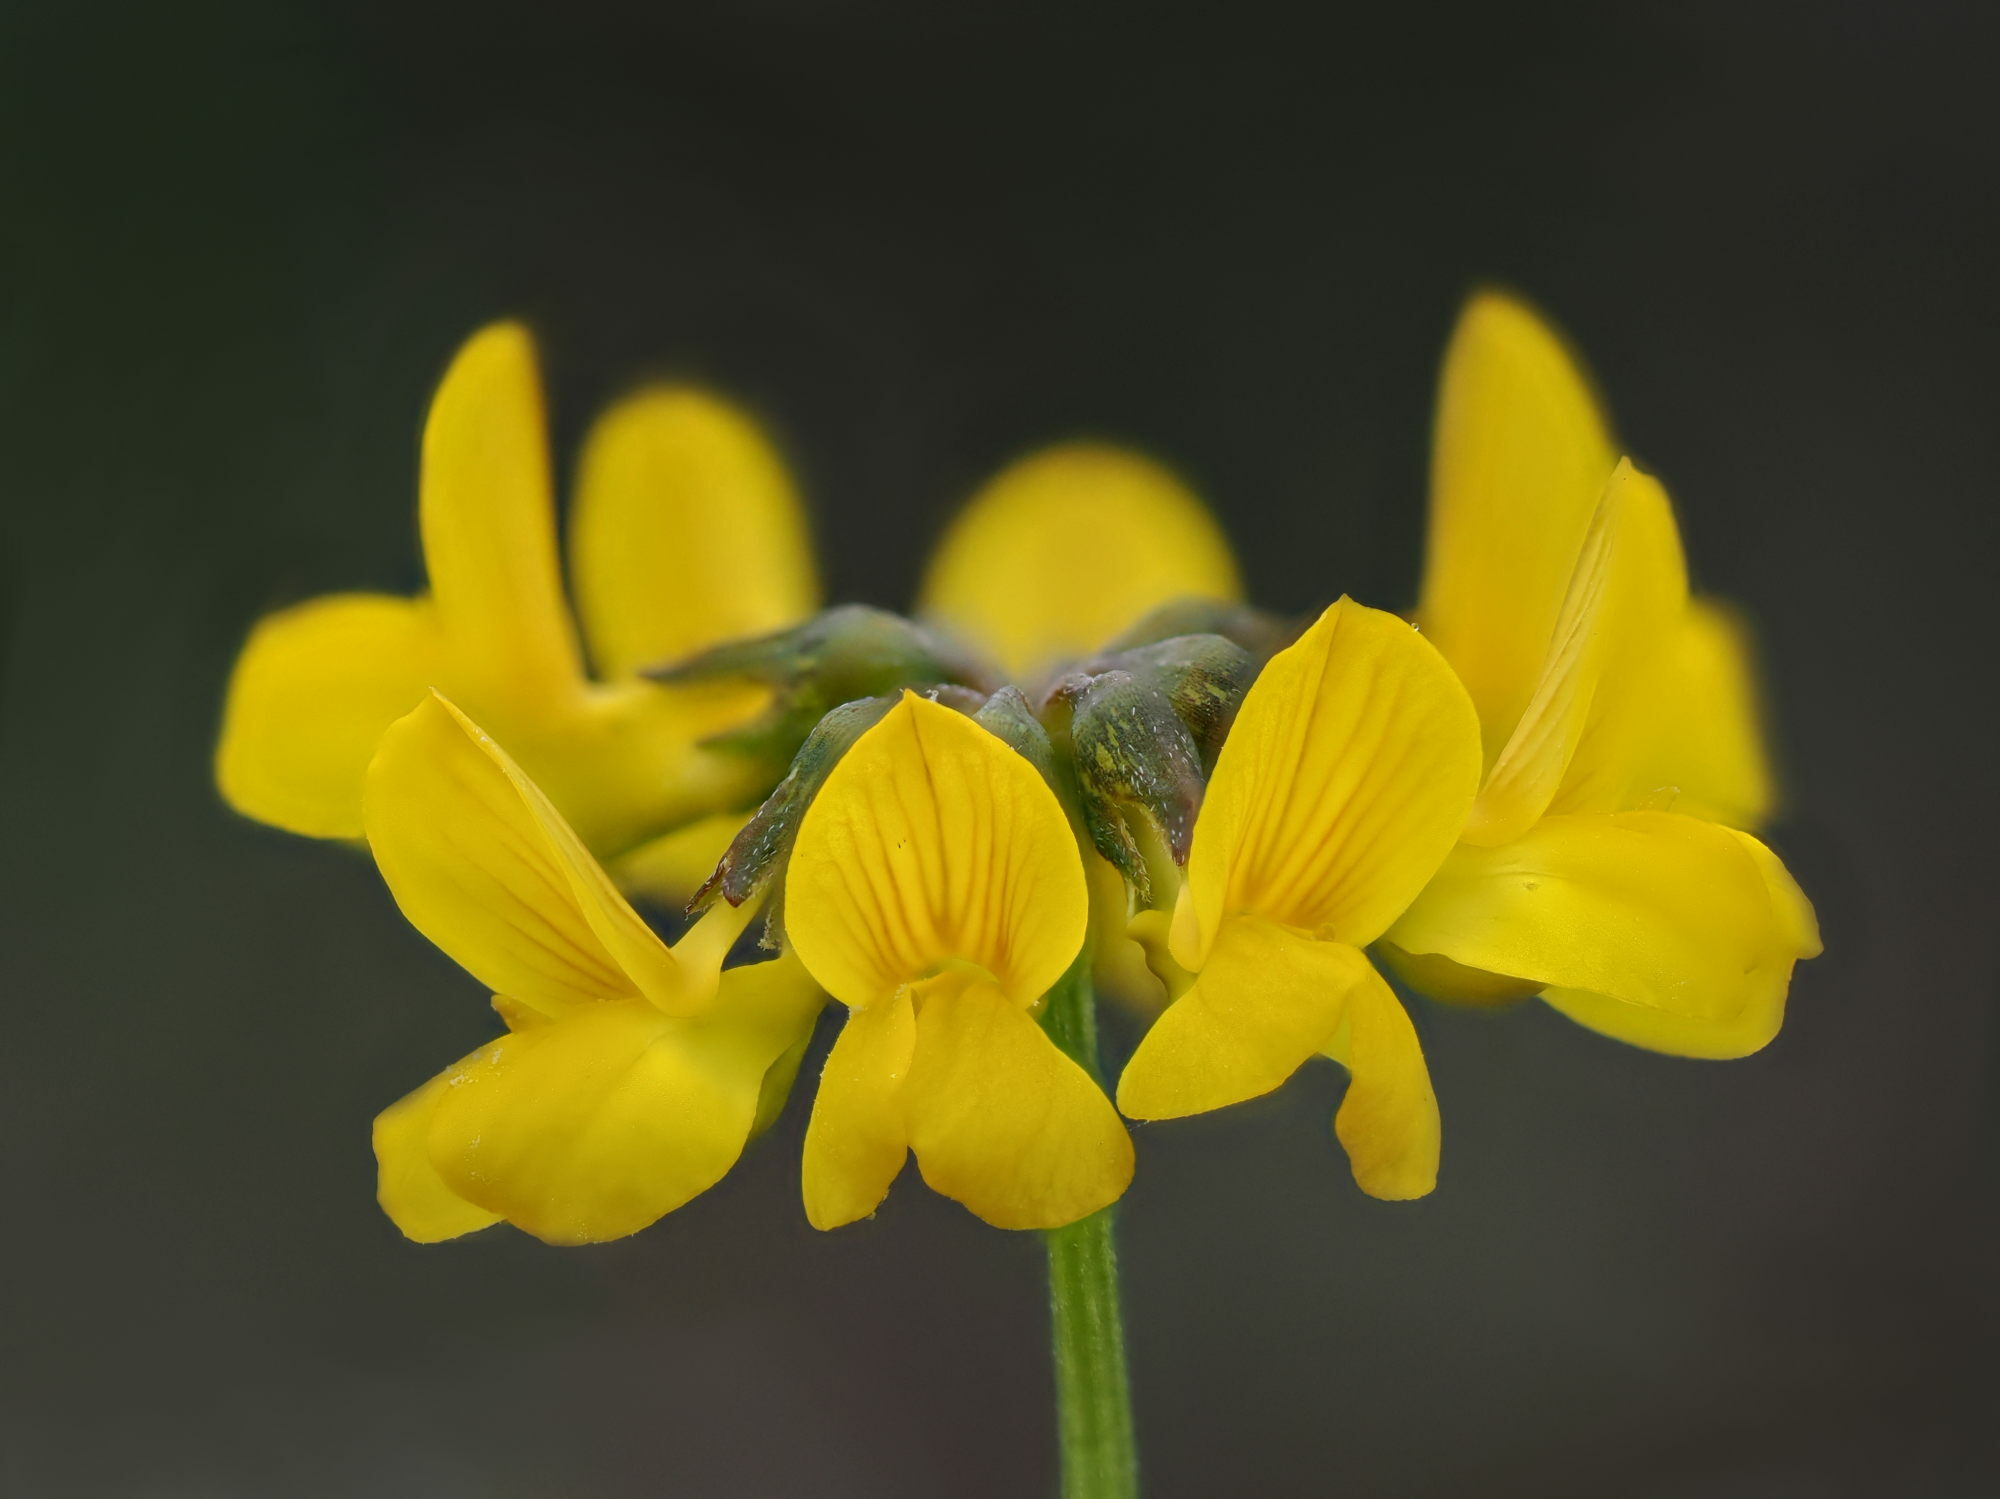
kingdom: Plantae
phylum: Tracheophyta
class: Magnoliopsida
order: Fabales
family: Fabaceae
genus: Hippocrepis
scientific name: Hippocrepis comosa
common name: Horseshoe vetch
